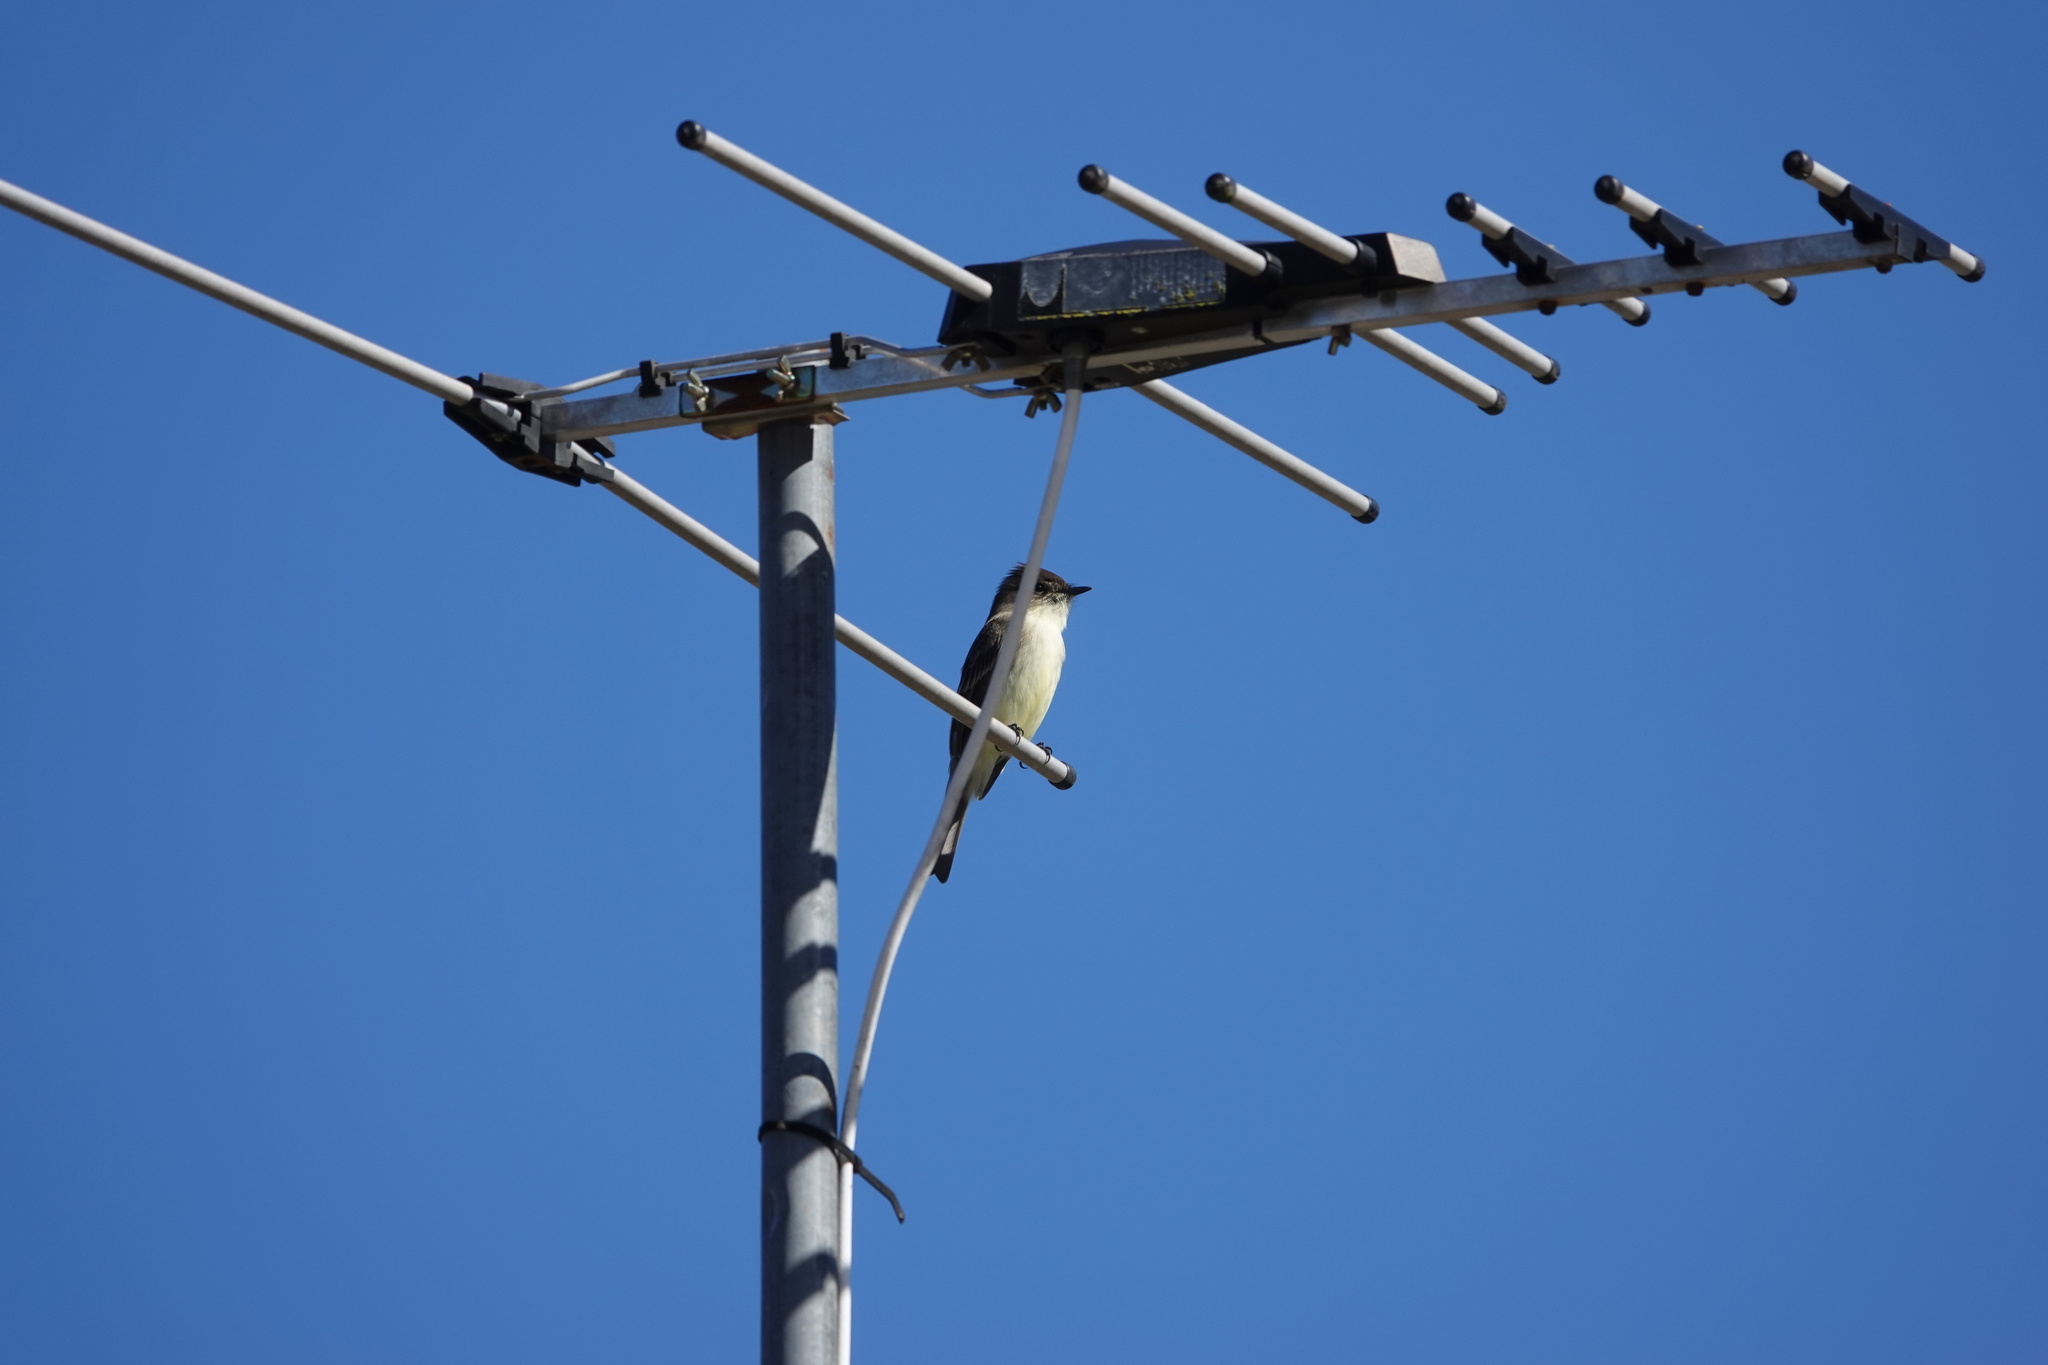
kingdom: Animalia
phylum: Chordata
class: Aves
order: Passeriformes
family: Tyrannidae
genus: Sayornis
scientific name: Sayornis phoebe
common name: Eastern phoebe
